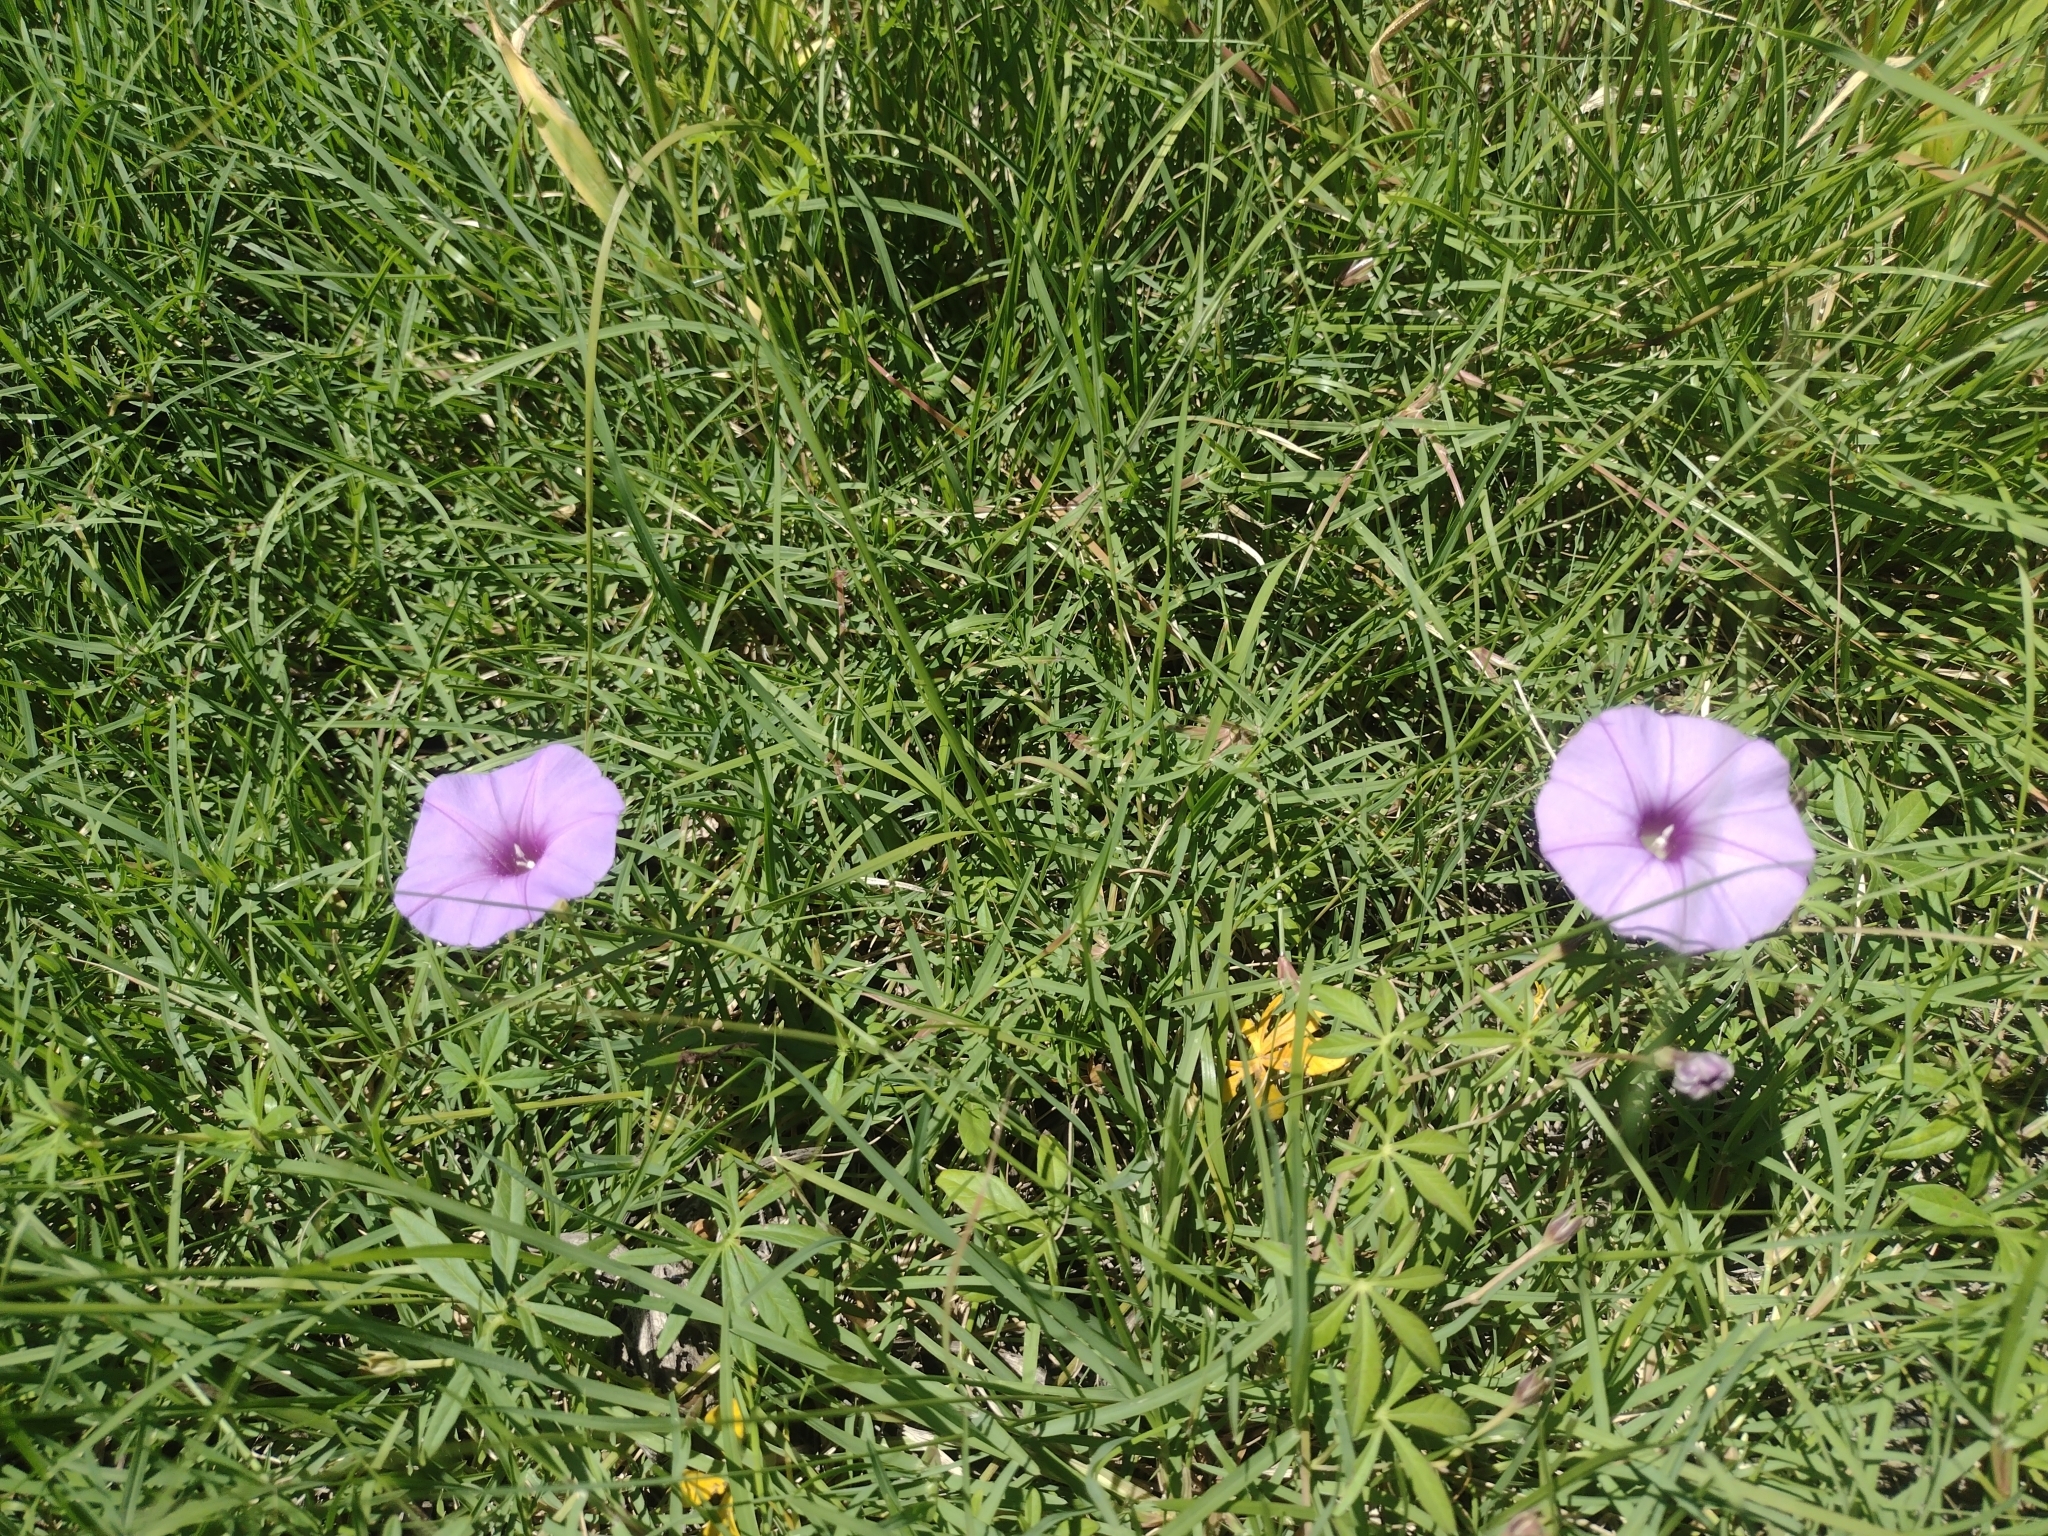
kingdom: Plantae
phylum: Tracheophyta
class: Magnoliopsida
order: Solanales
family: Convolvulaceae
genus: Ipomoea
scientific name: Ipomoea ternifolia
